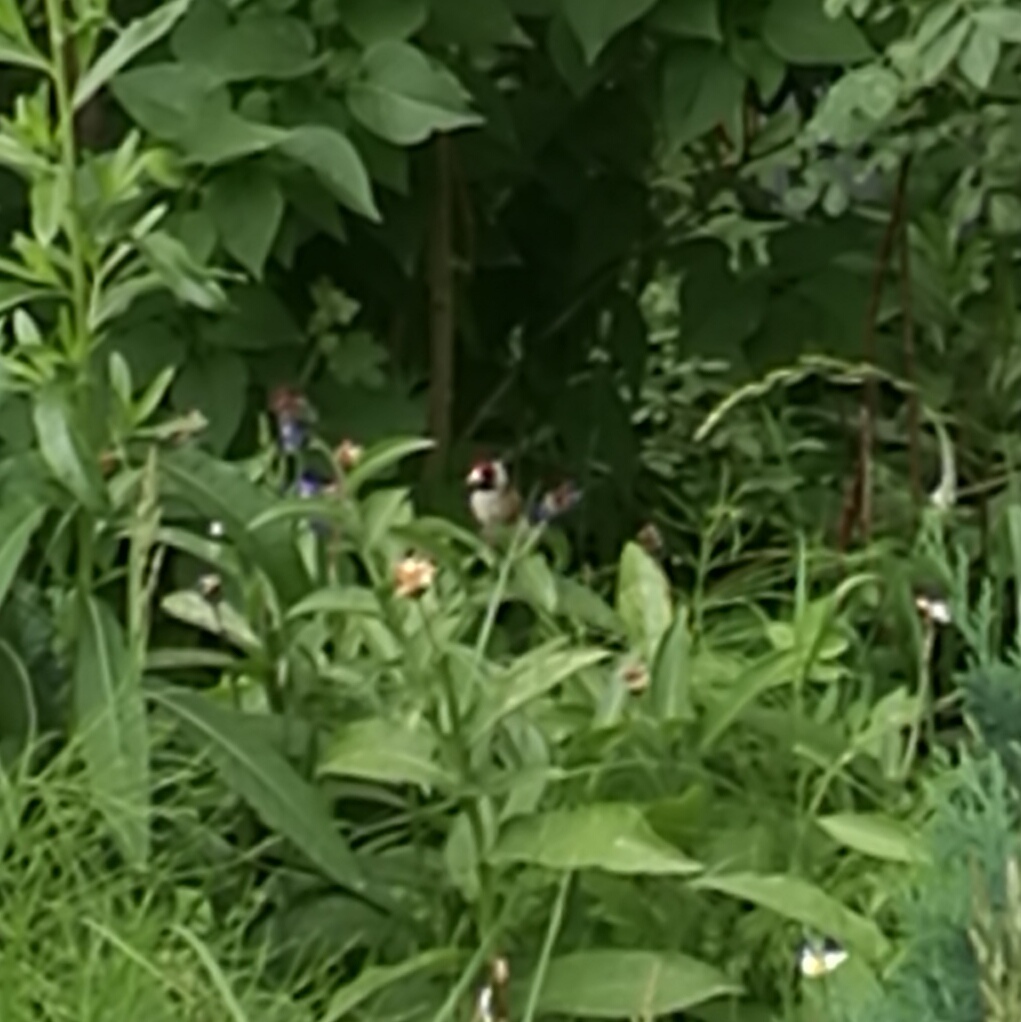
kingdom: Animalia
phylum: Chordata
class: Aves
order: Passeriformes
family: Fringillidae
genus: Carduelis
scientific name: Carduelis carduelis
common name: European goldfinch
